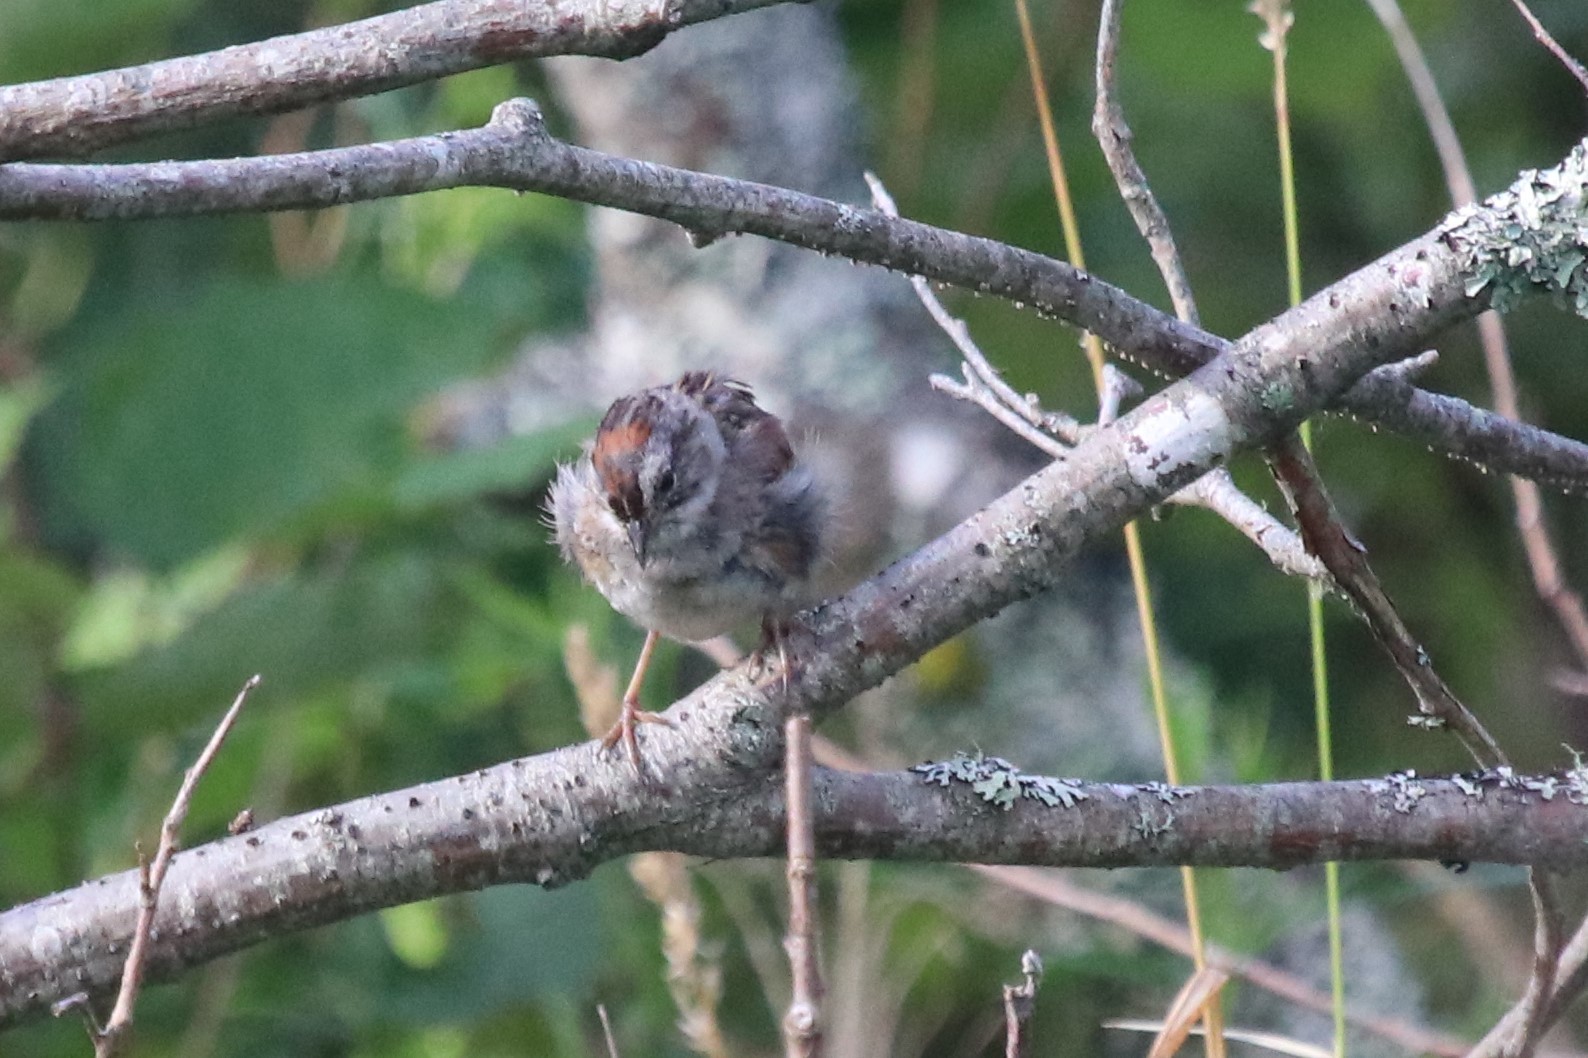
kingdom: Animalia
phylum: Chordata
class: Aves
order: Passeriformes
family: Passerellidae
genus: Melospiza
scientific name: Melospiza georgiana
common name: Swamp sparrow
